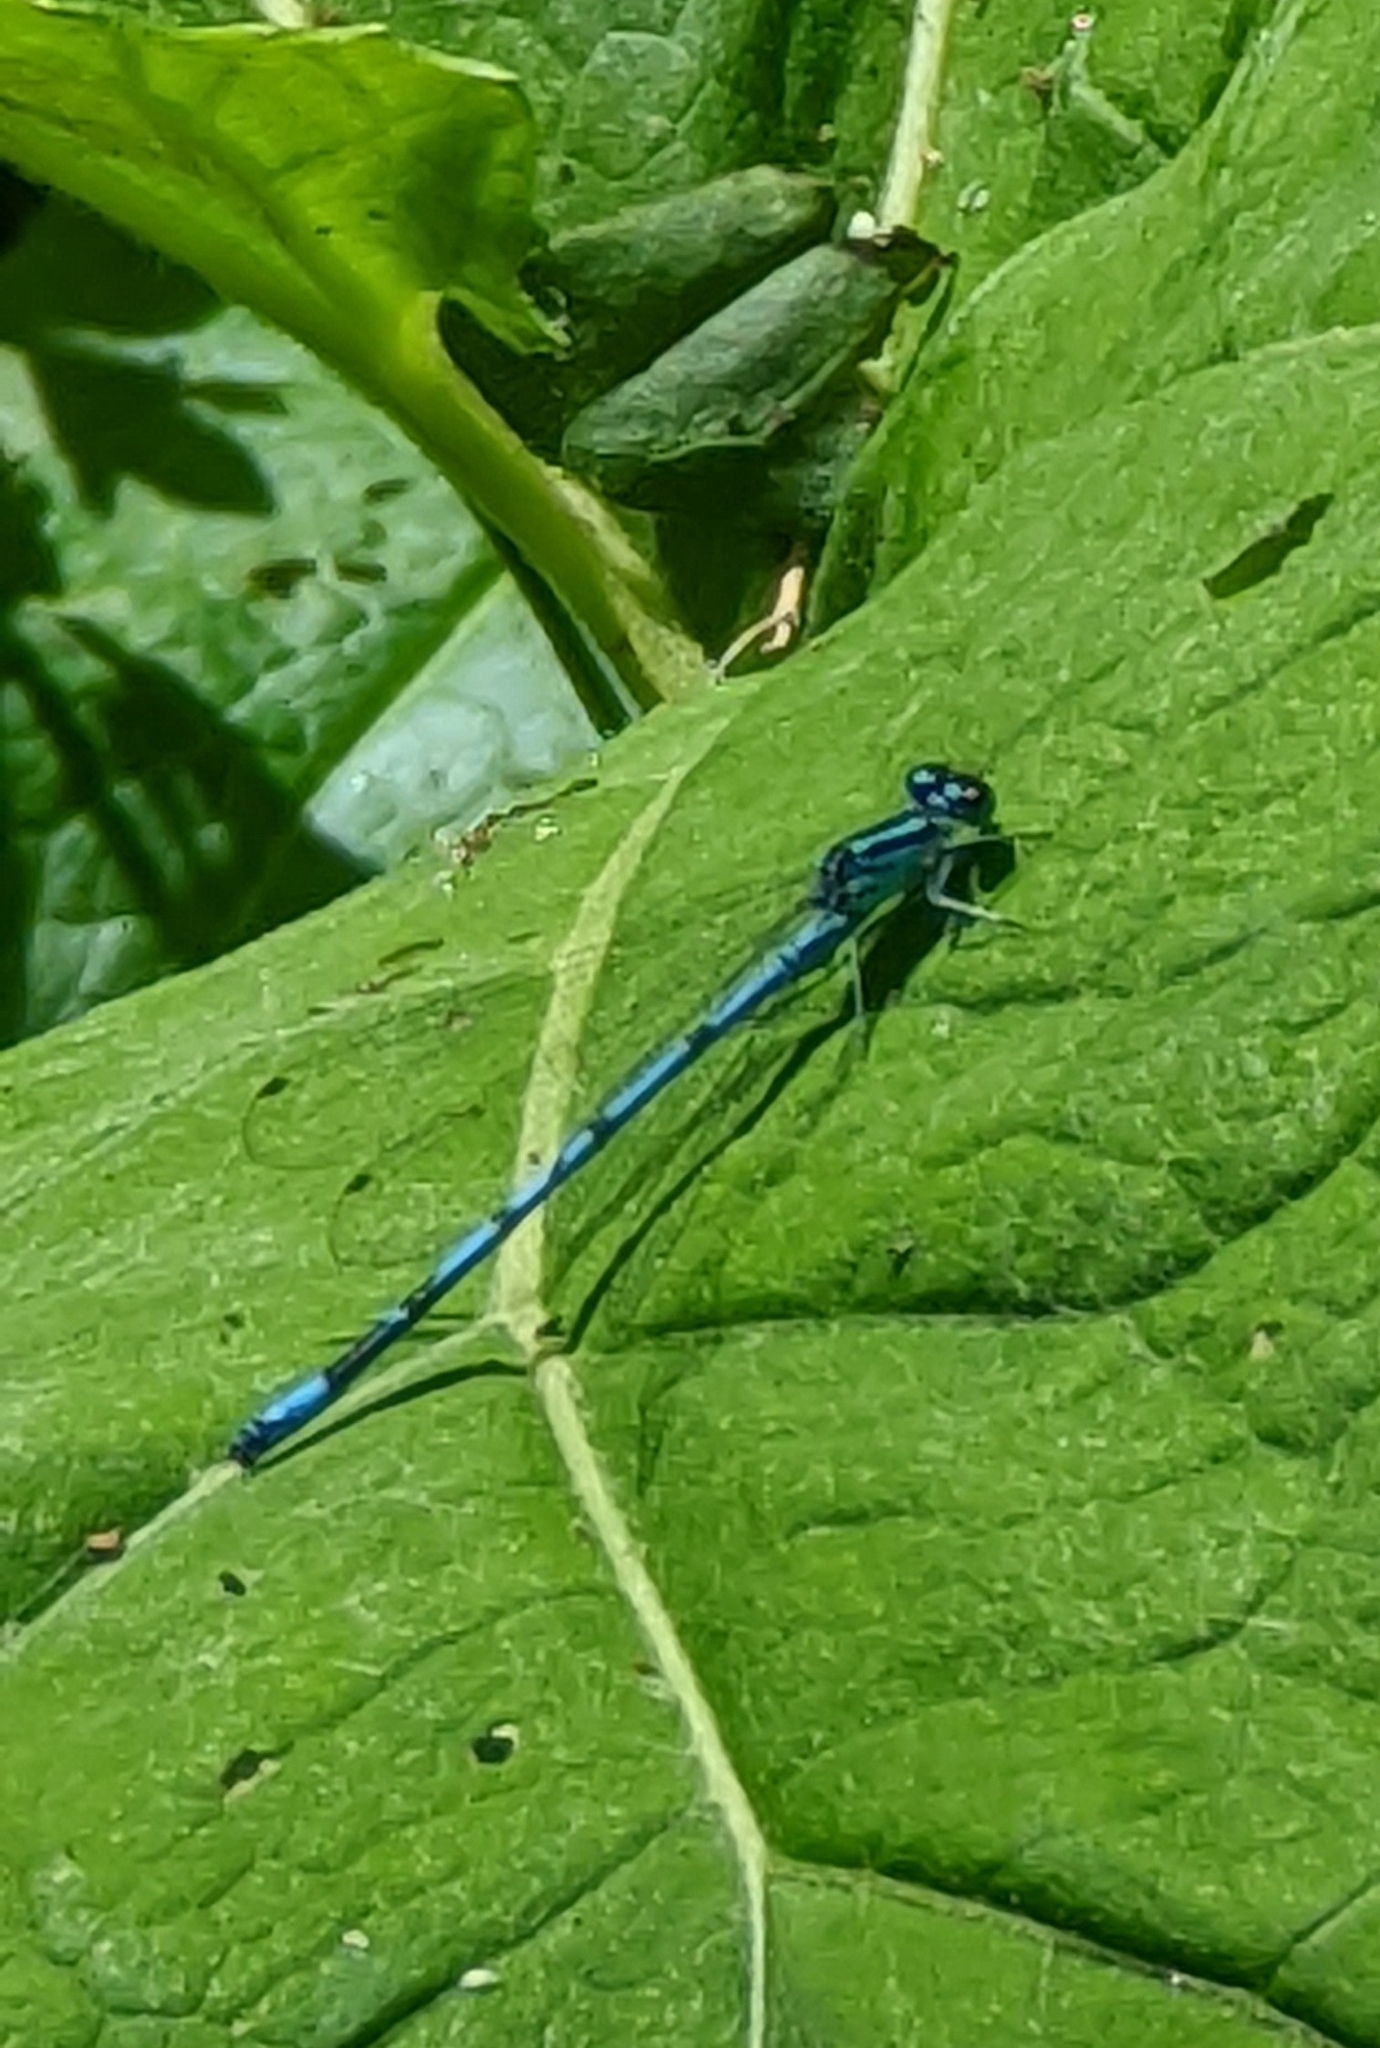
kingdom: Animalia
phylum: Arthropoda
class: Insecta
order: Odonata
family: Coenagrionidae
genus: Coenagrion
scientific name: Coenagrion puella
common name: Azure damselfly
